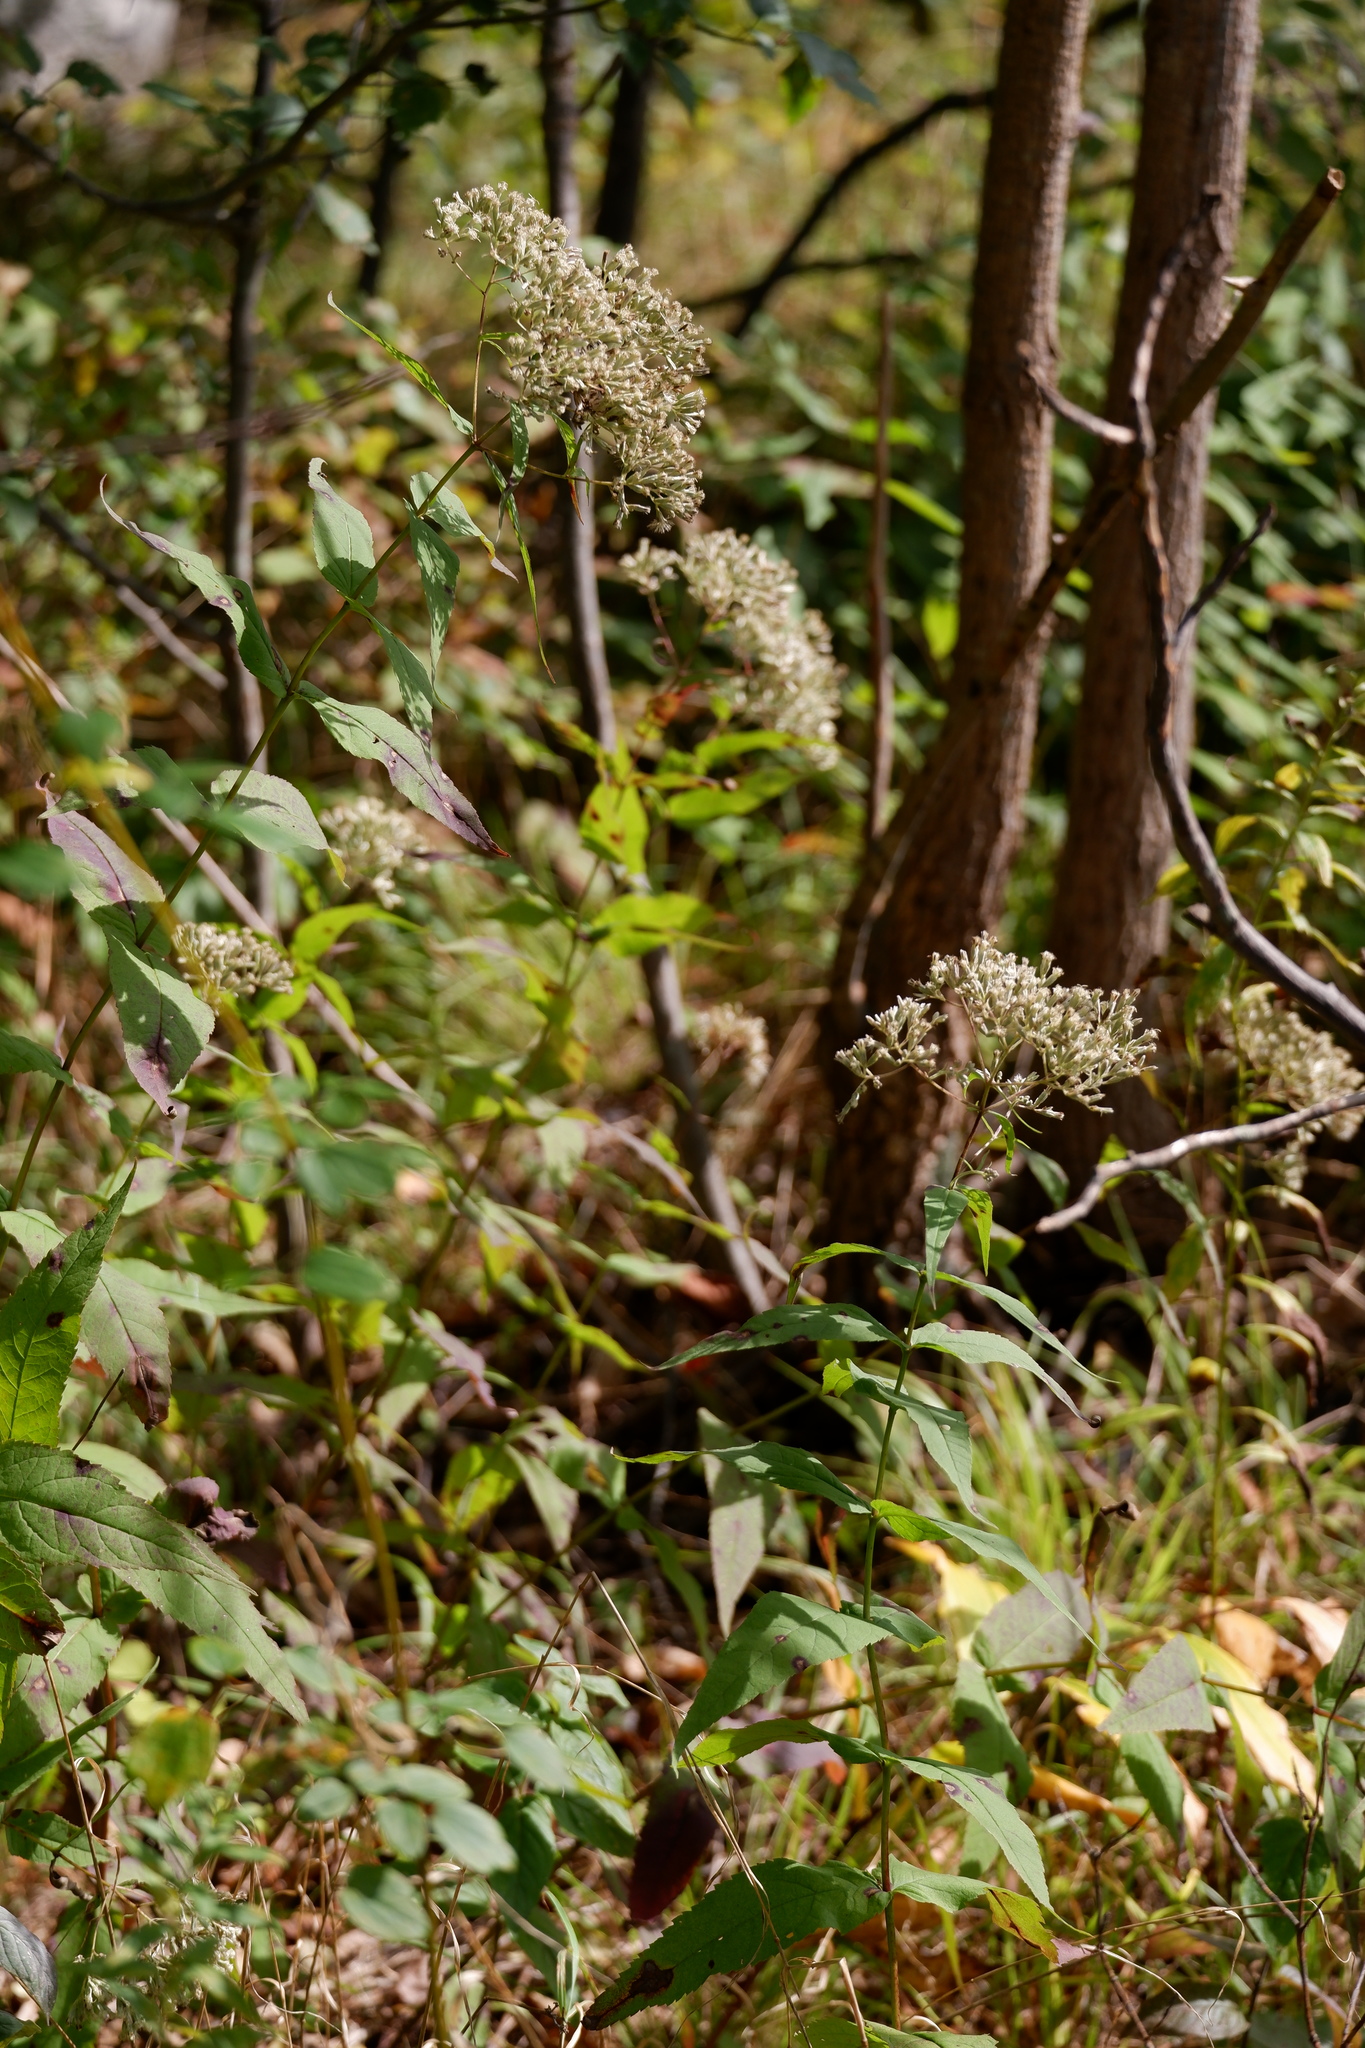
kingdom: Plantae
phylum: Tracheophyta
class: Magnoliopsida
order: Asterales
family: Asteraceae
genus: Eupatorium
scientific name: Eupatorium sessilifolium
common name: Upland boneset
